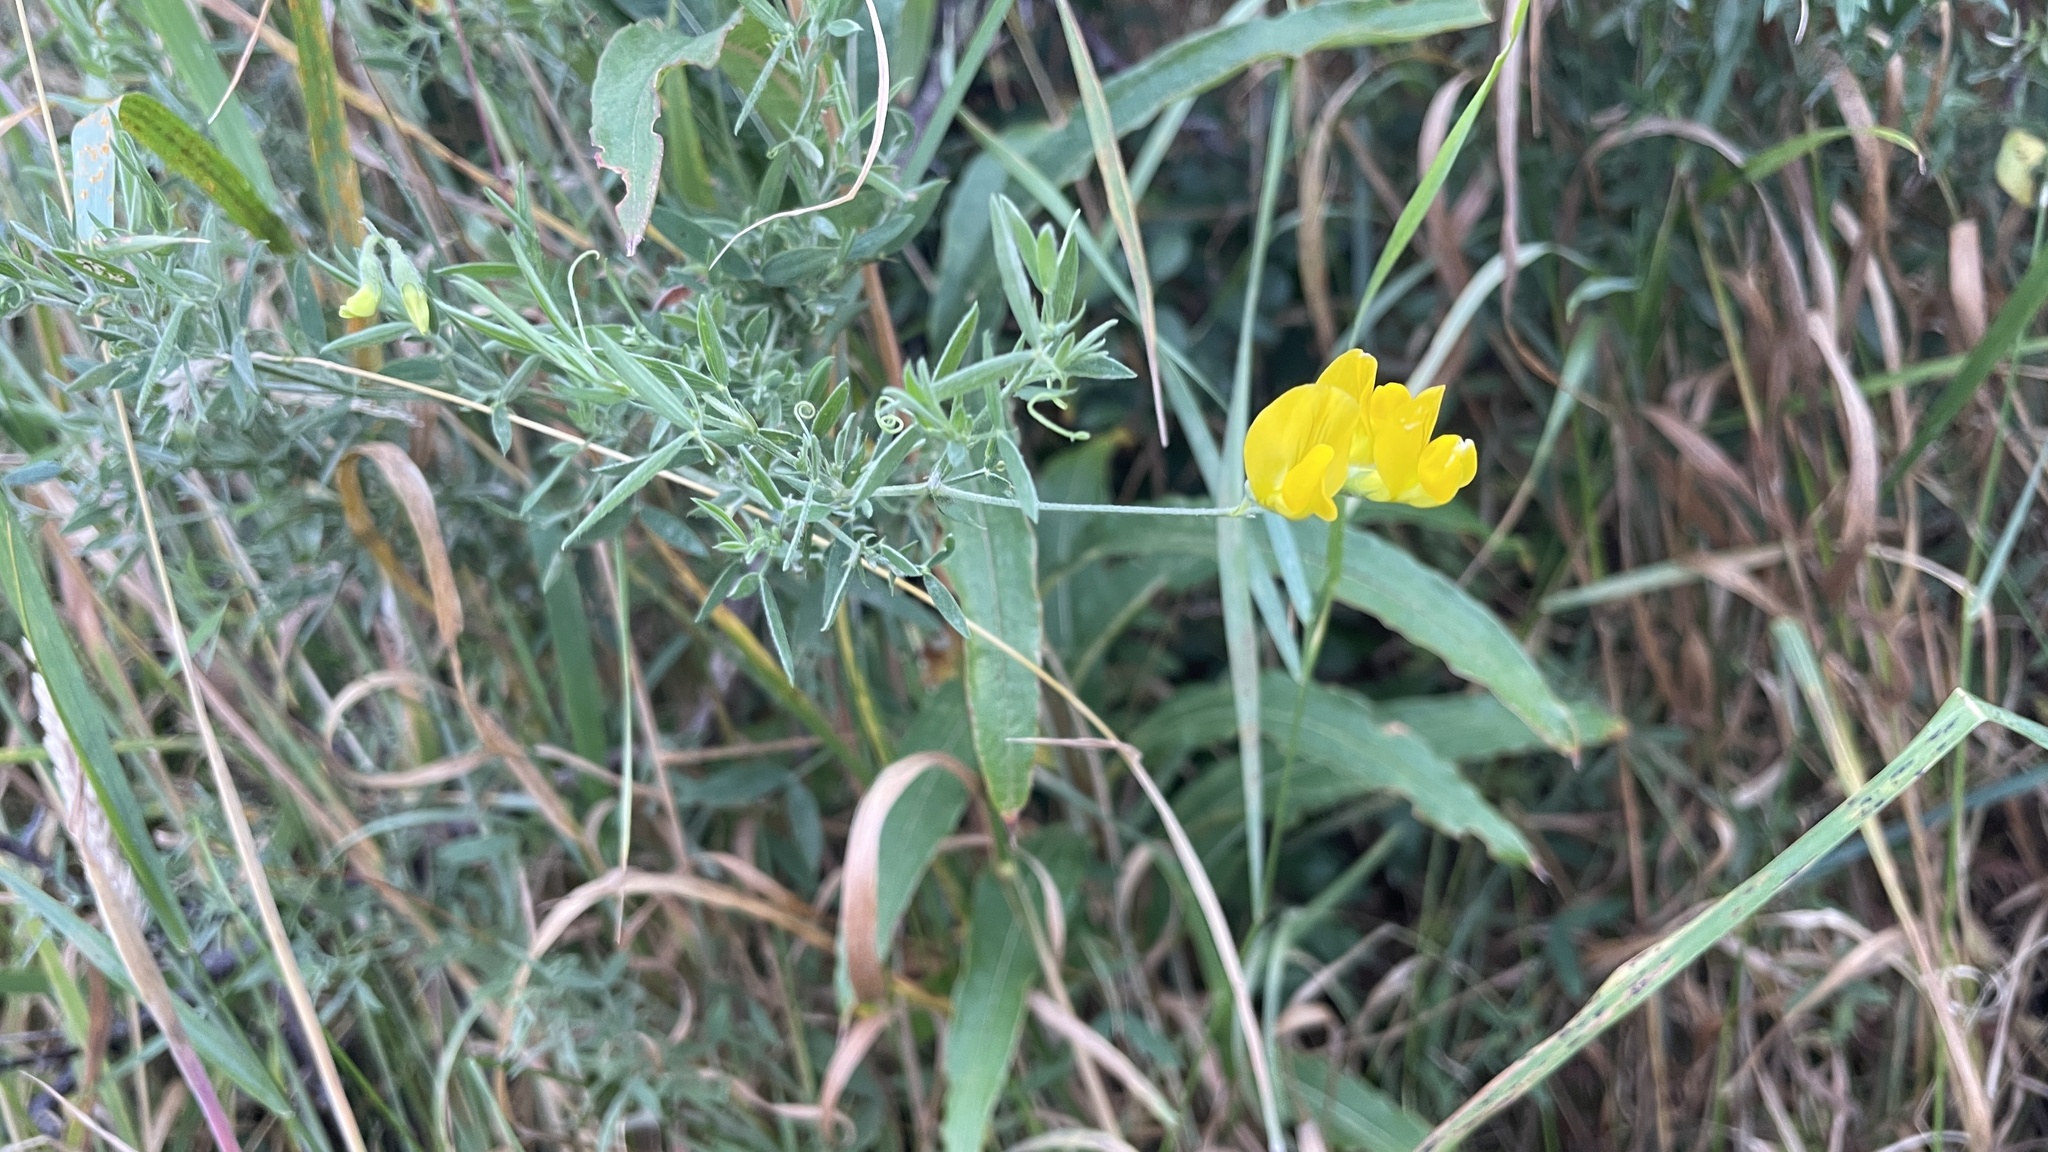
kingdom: Plantae
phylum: Tracheophyta
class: Magnoliopsida
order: Fabales
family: Fabaceae
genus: Lathyrus
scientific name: Lathyrus pratensis
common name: Meadow vetchling
